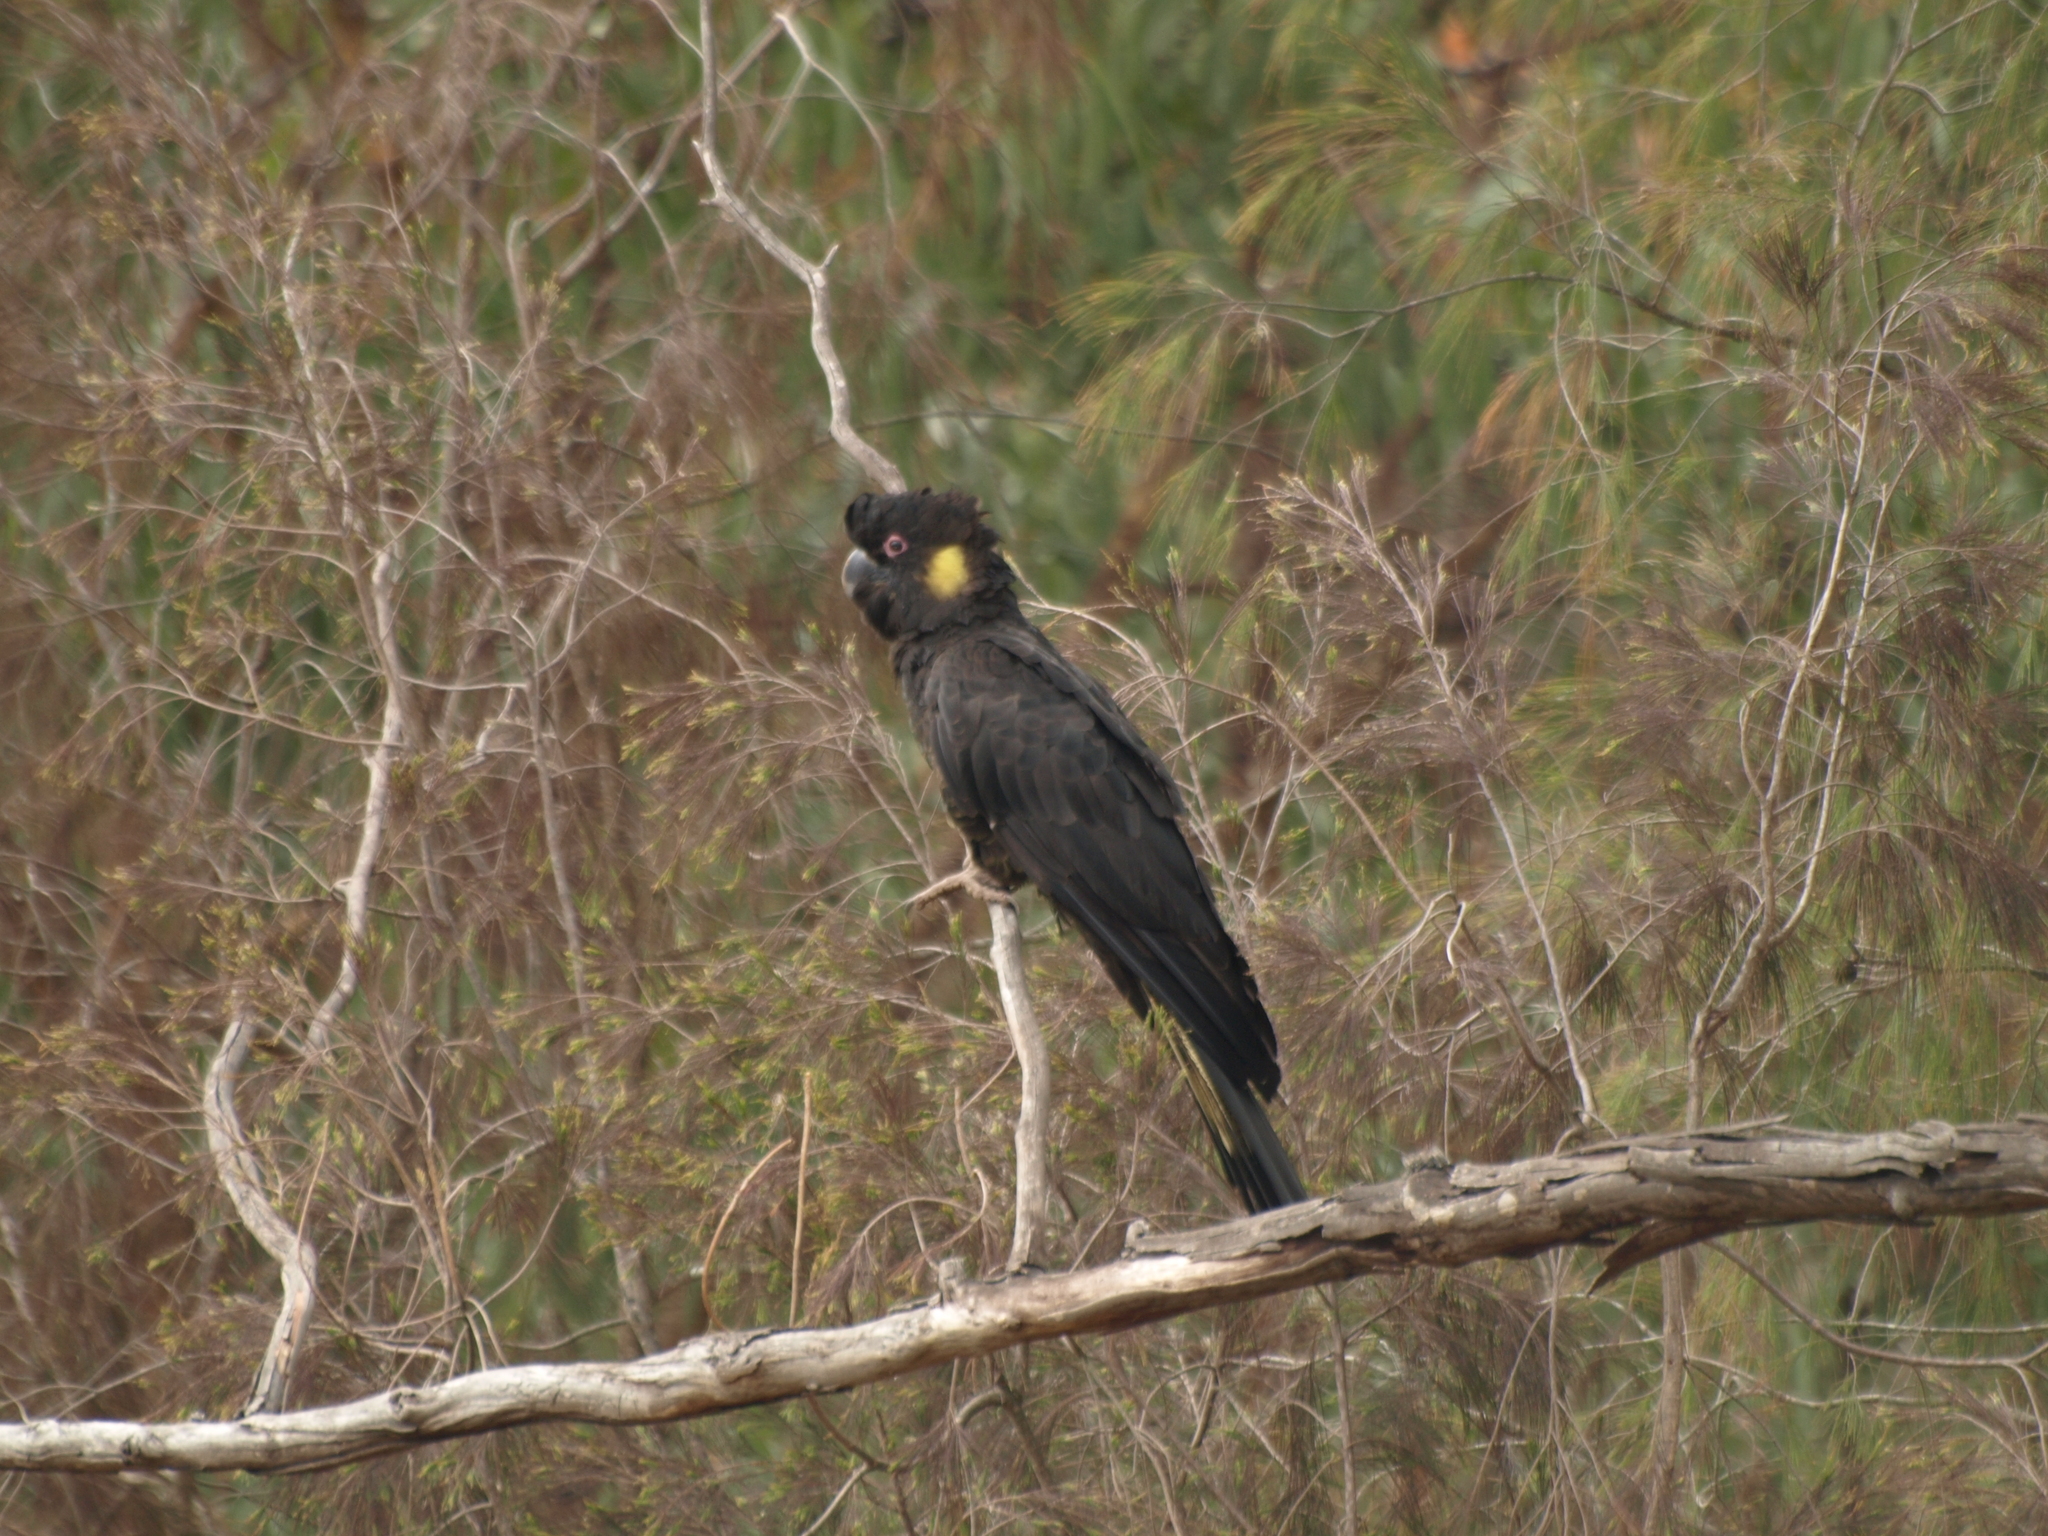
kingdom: Animalia
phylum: Chordata
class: Aves
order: Psittaciformes
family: Cacatuidae
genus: Zanda
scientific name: Zanda funerea
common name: Yellow-tailed black-cockatoo
